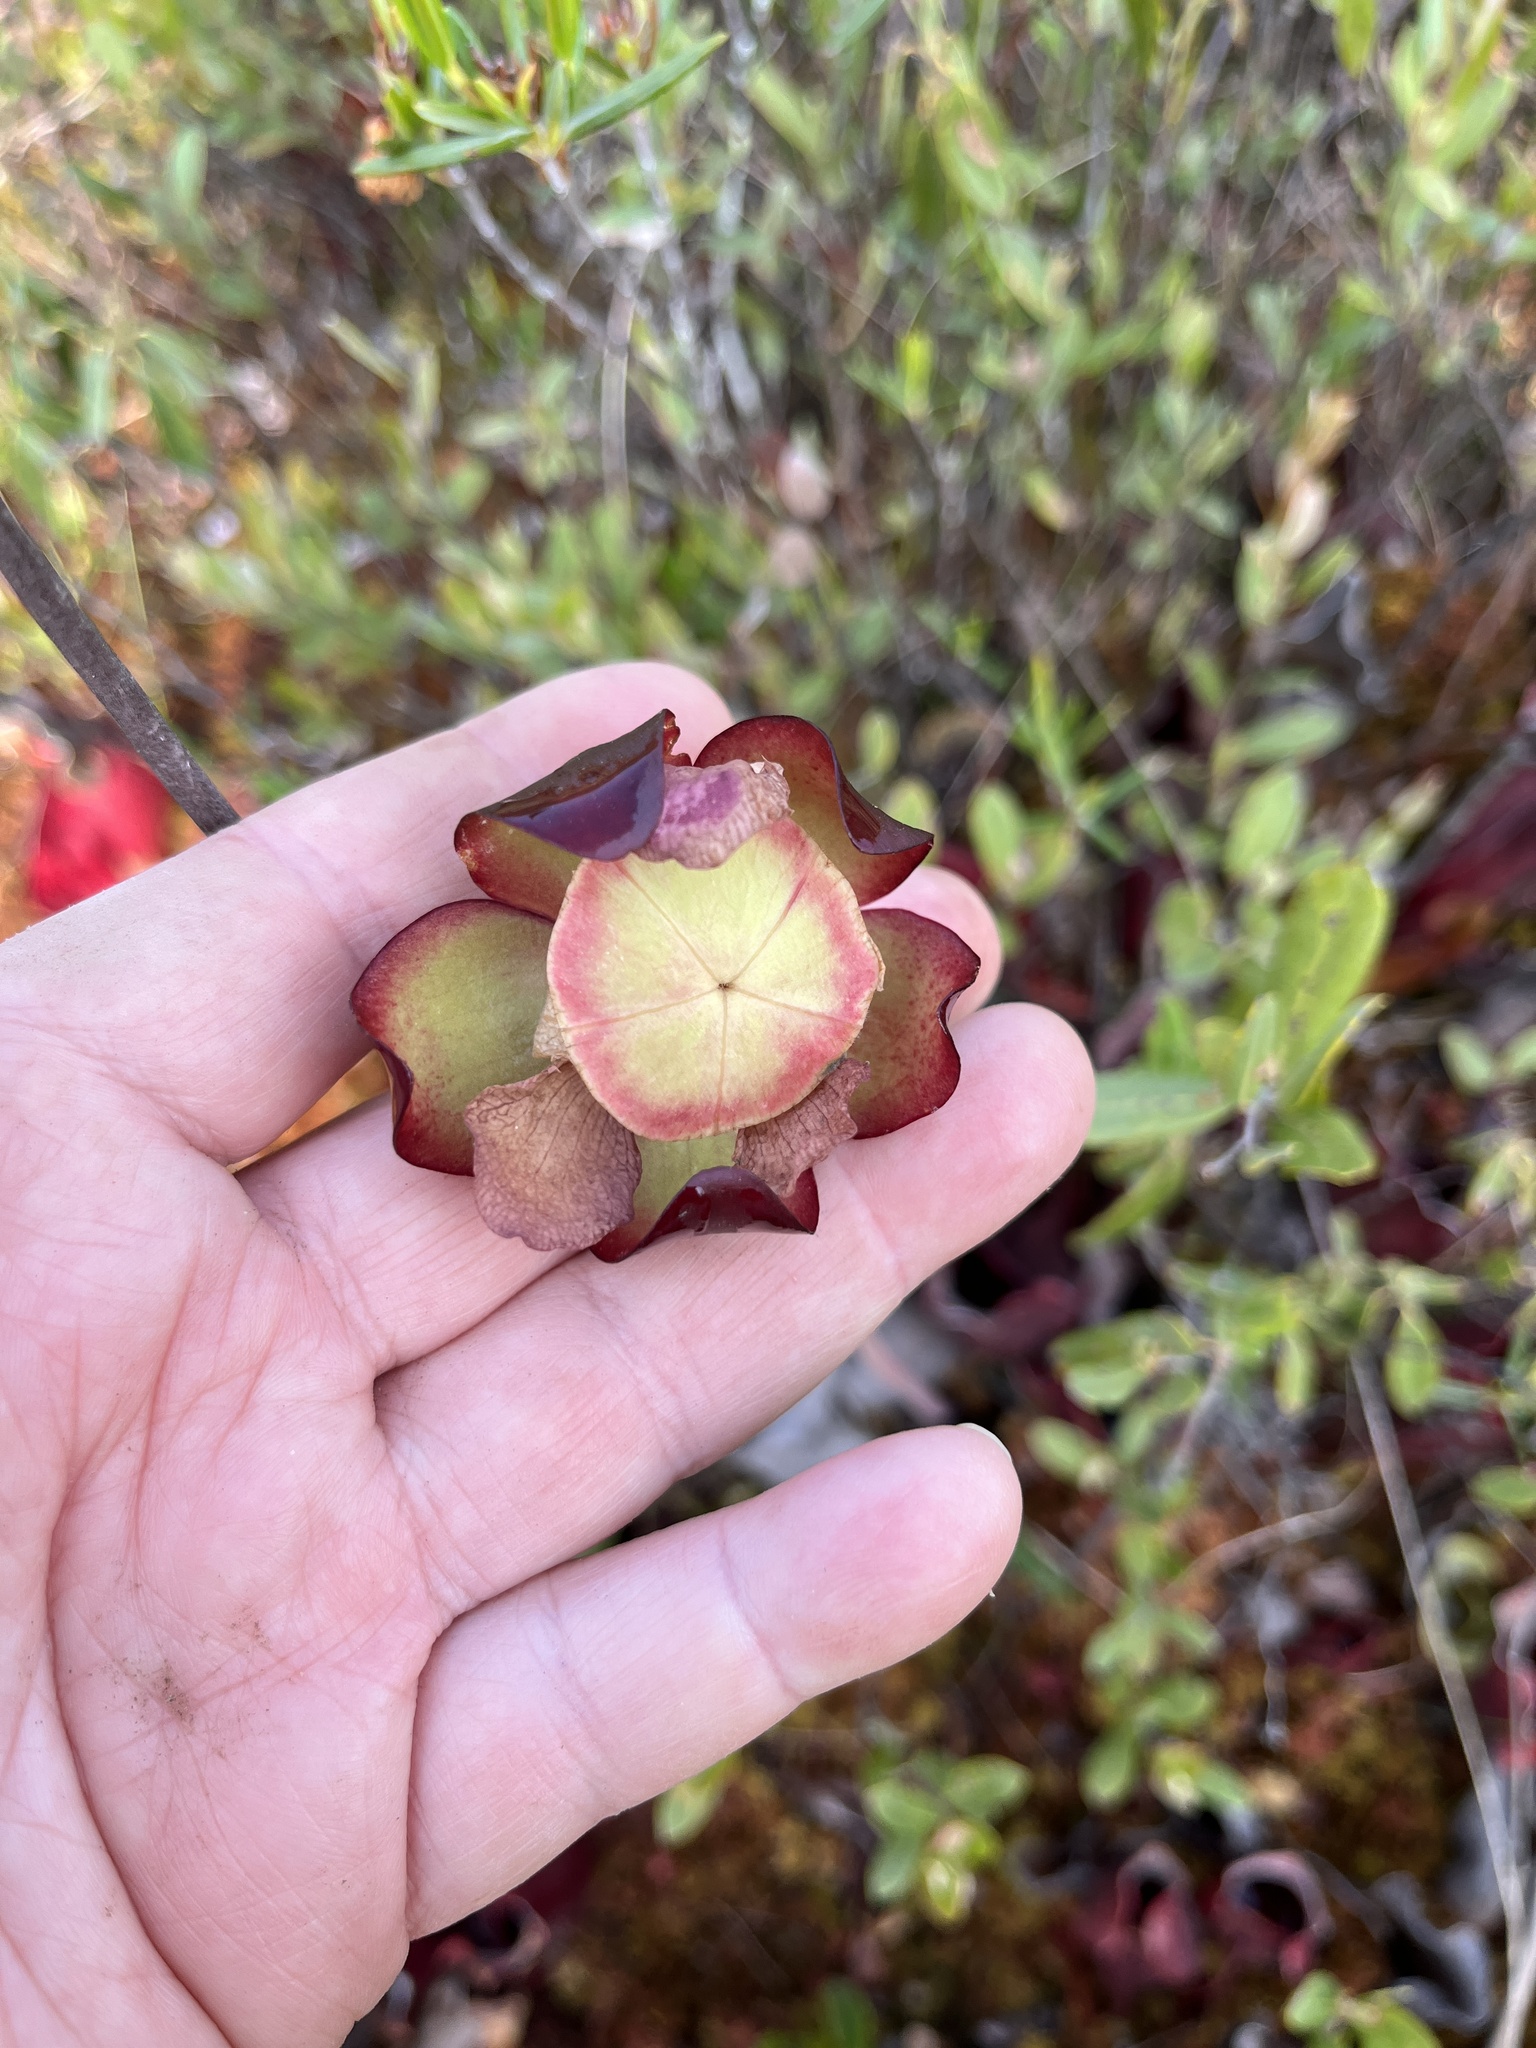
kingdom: Plantae
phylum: Tracheophyta
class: Magnoliopsida
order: Ericales
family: Sarraceniaceae
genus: Sarracenia
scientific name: Sarracenia purpurea
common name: Pitcherplant
